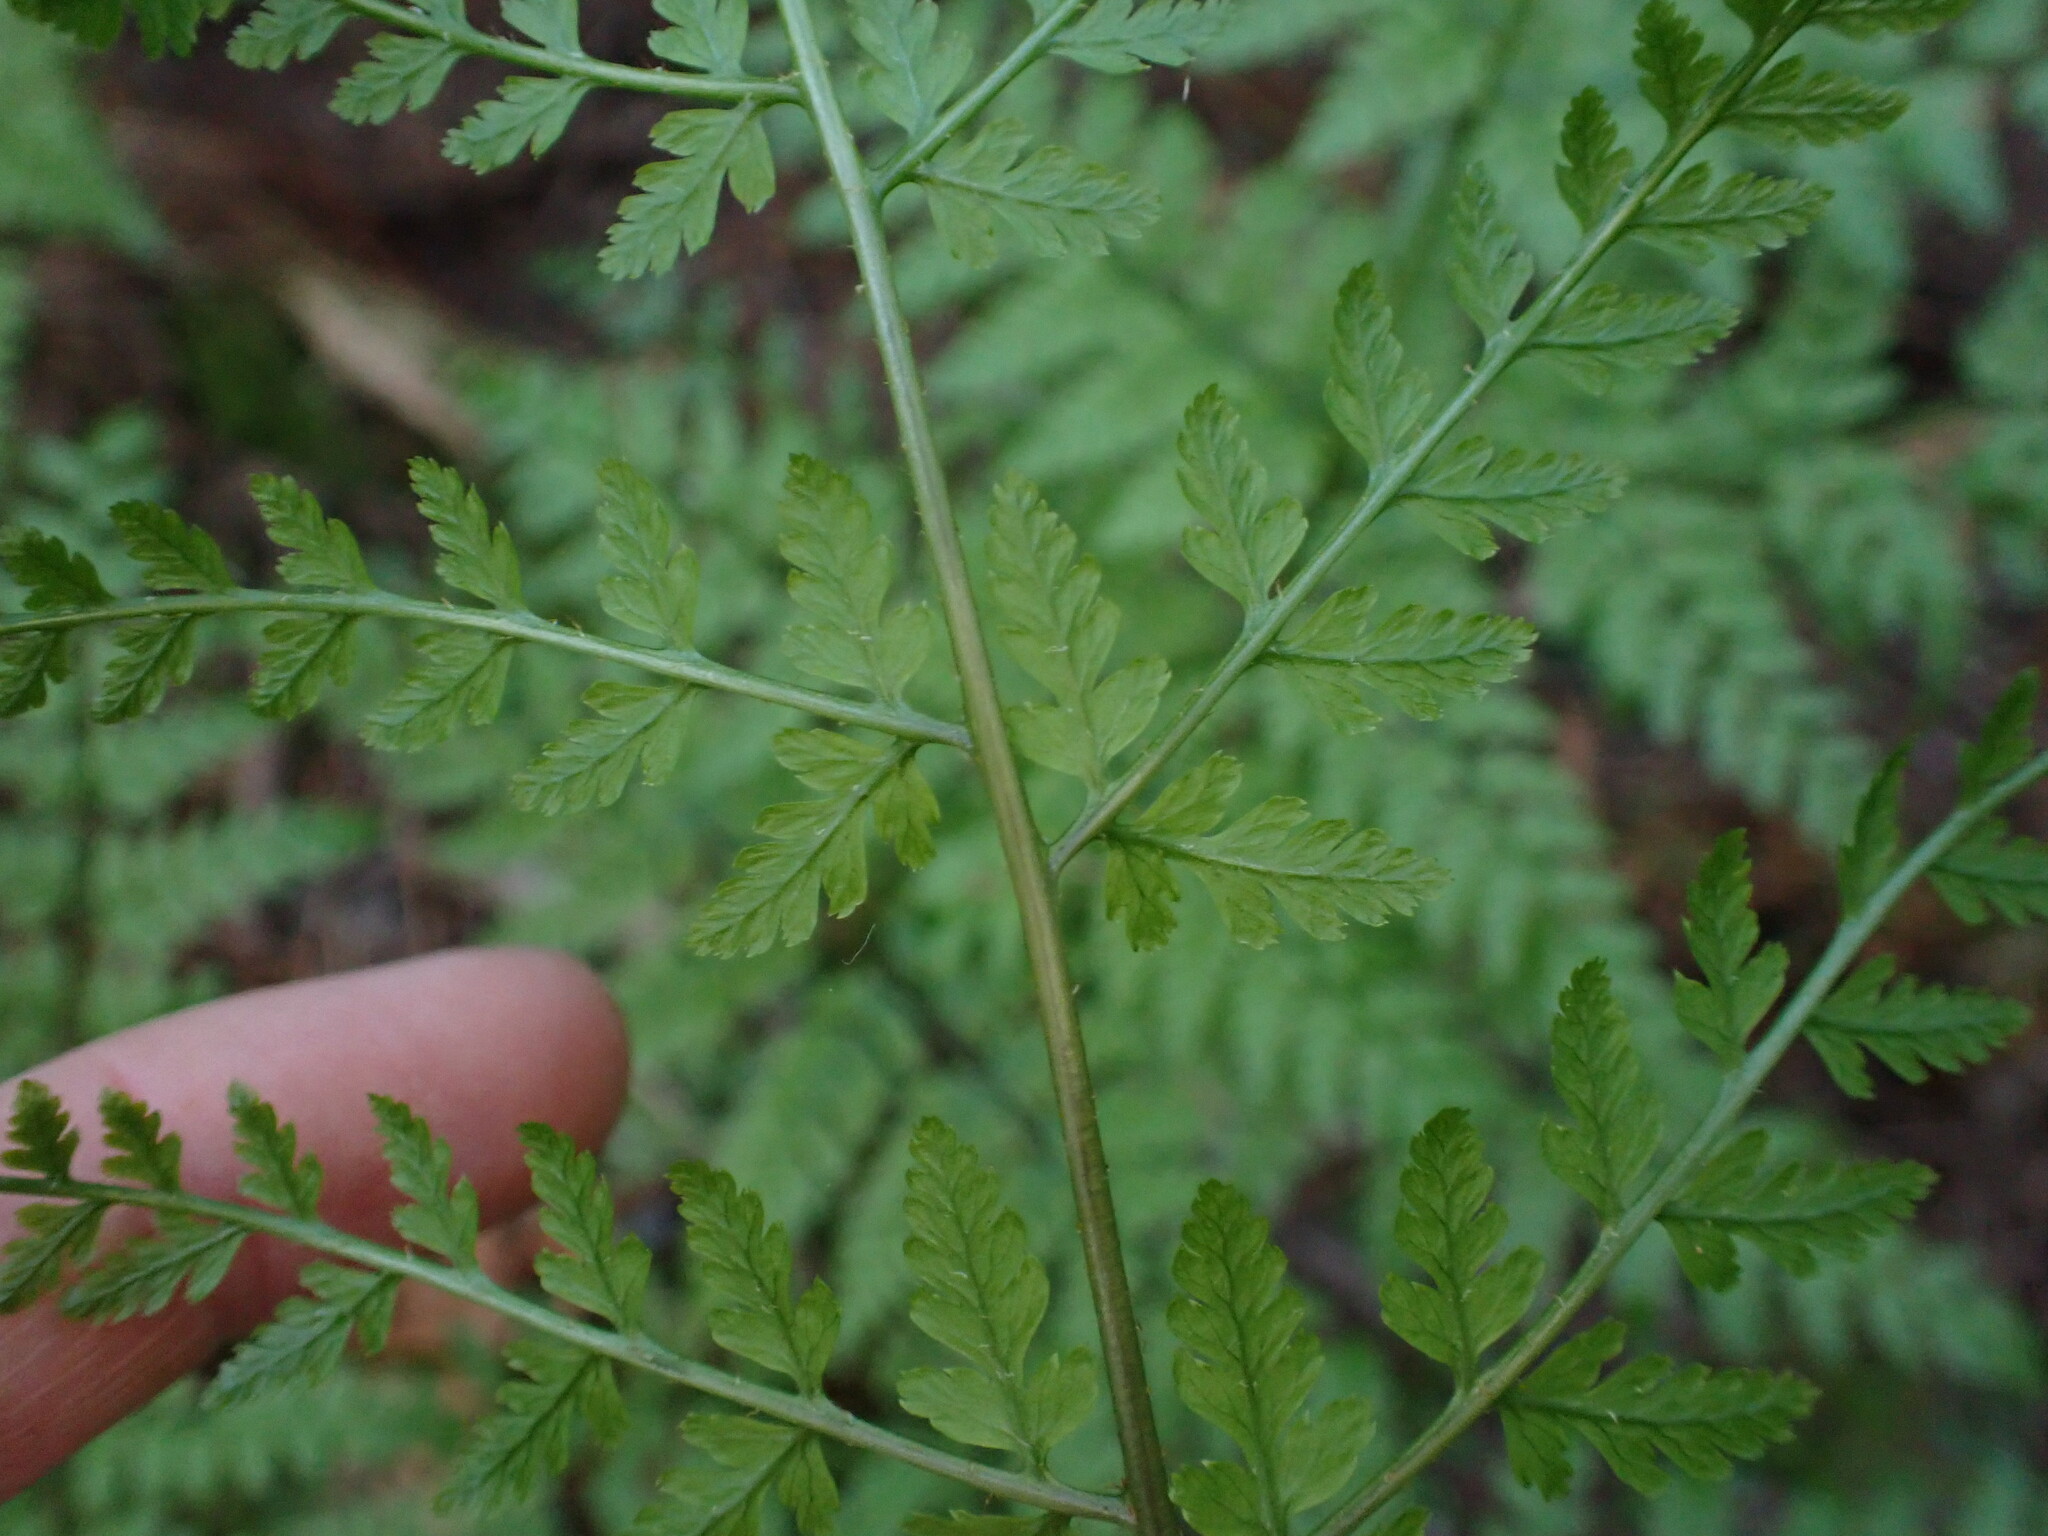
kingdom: Plantae
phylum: Tracheophyta
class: Polypodiopsida
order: Polypodiales
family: Dryopteridaceae
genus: Dryopteris
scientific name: Dryopteris expansa
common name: Northern buckler fern
